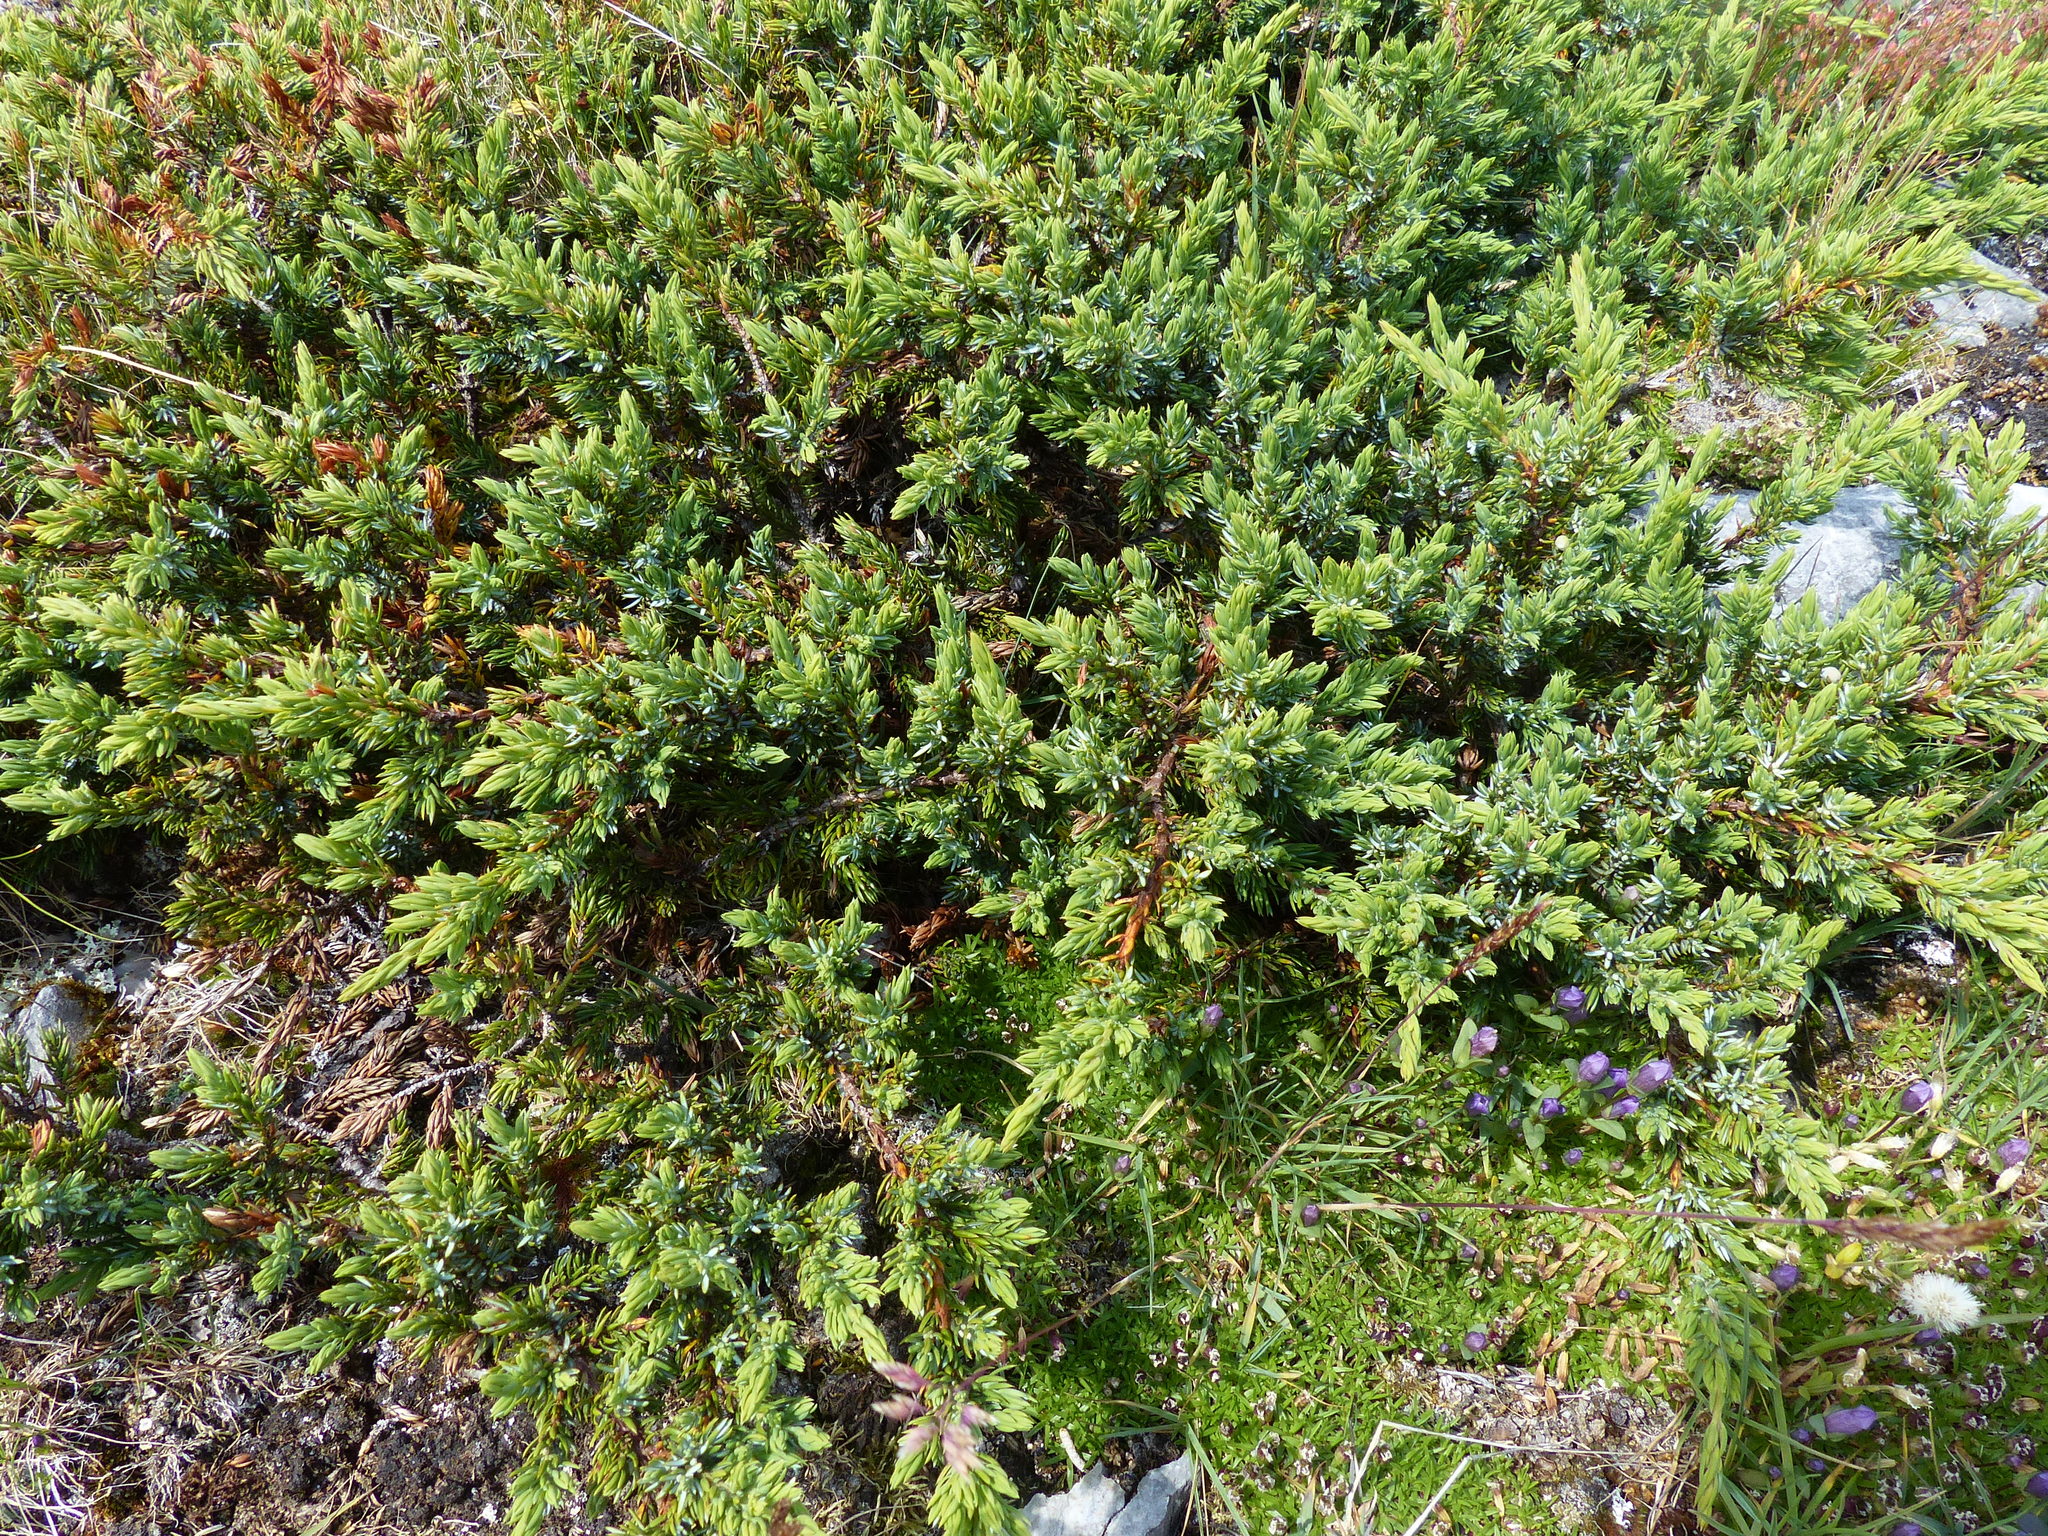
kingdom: Plantae
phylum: Tracheophyta
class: Pinopsida
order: Pinales
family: Cupressaceae
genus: Juniperus
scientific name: Juniperus communis
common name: Common juniper
